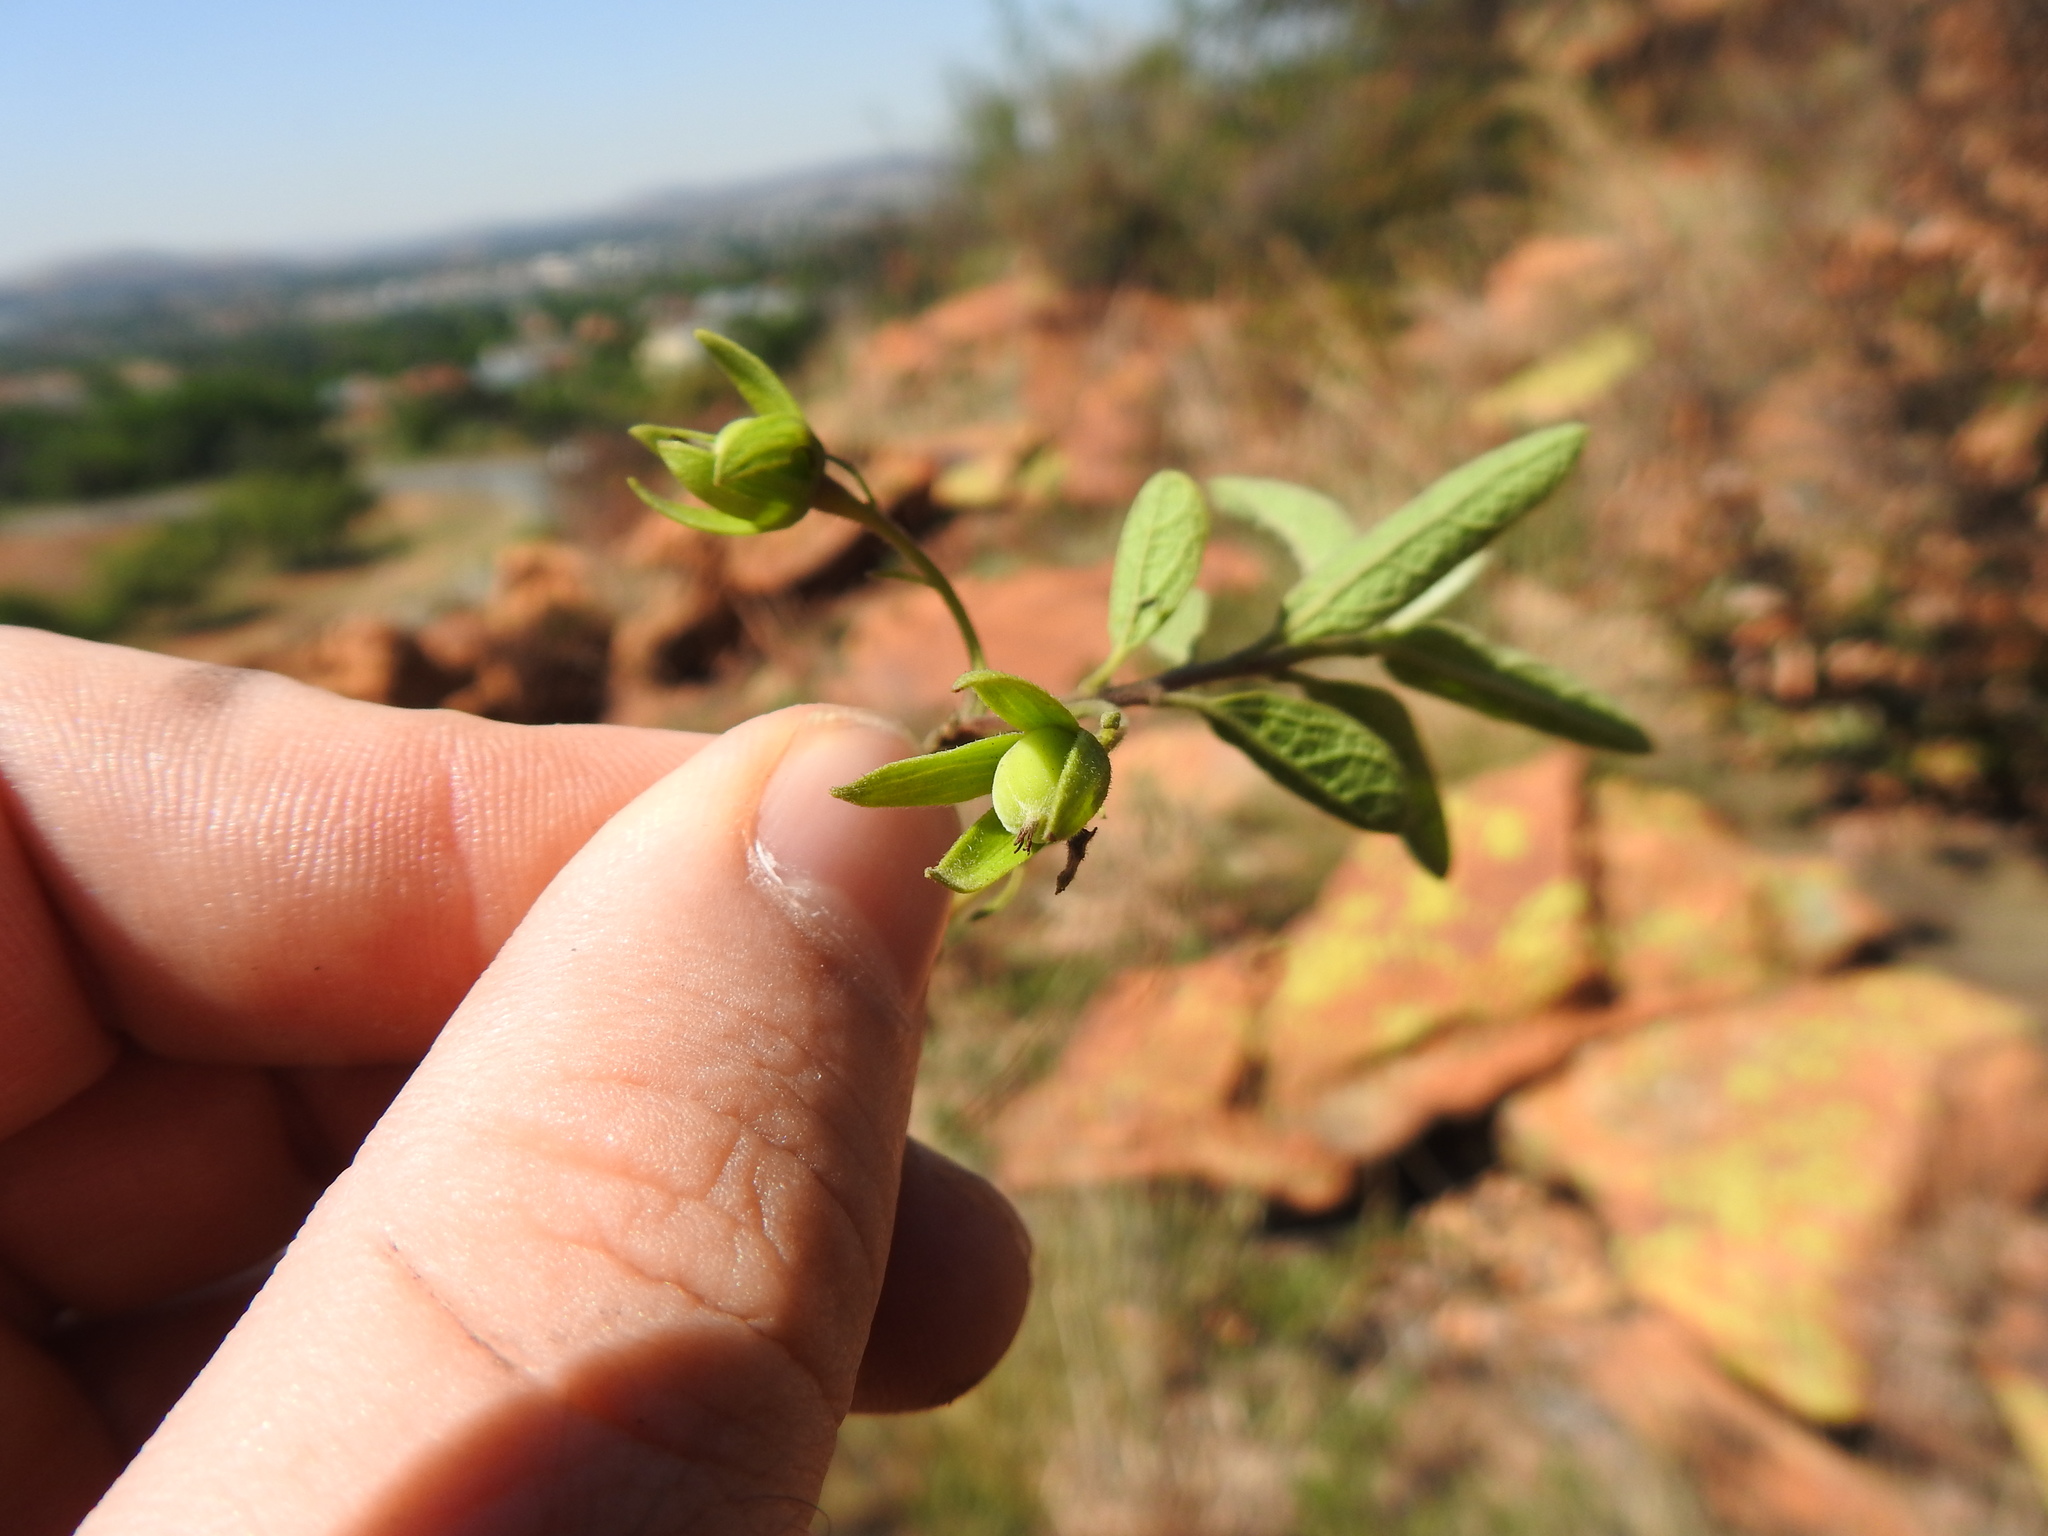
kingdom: Plantae
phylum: Tracheophyta
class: Magnoliopsida
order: Ericales
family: Ebenaceae
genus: Diospyros
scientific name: Diospyros lycioides
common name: Red star apple
